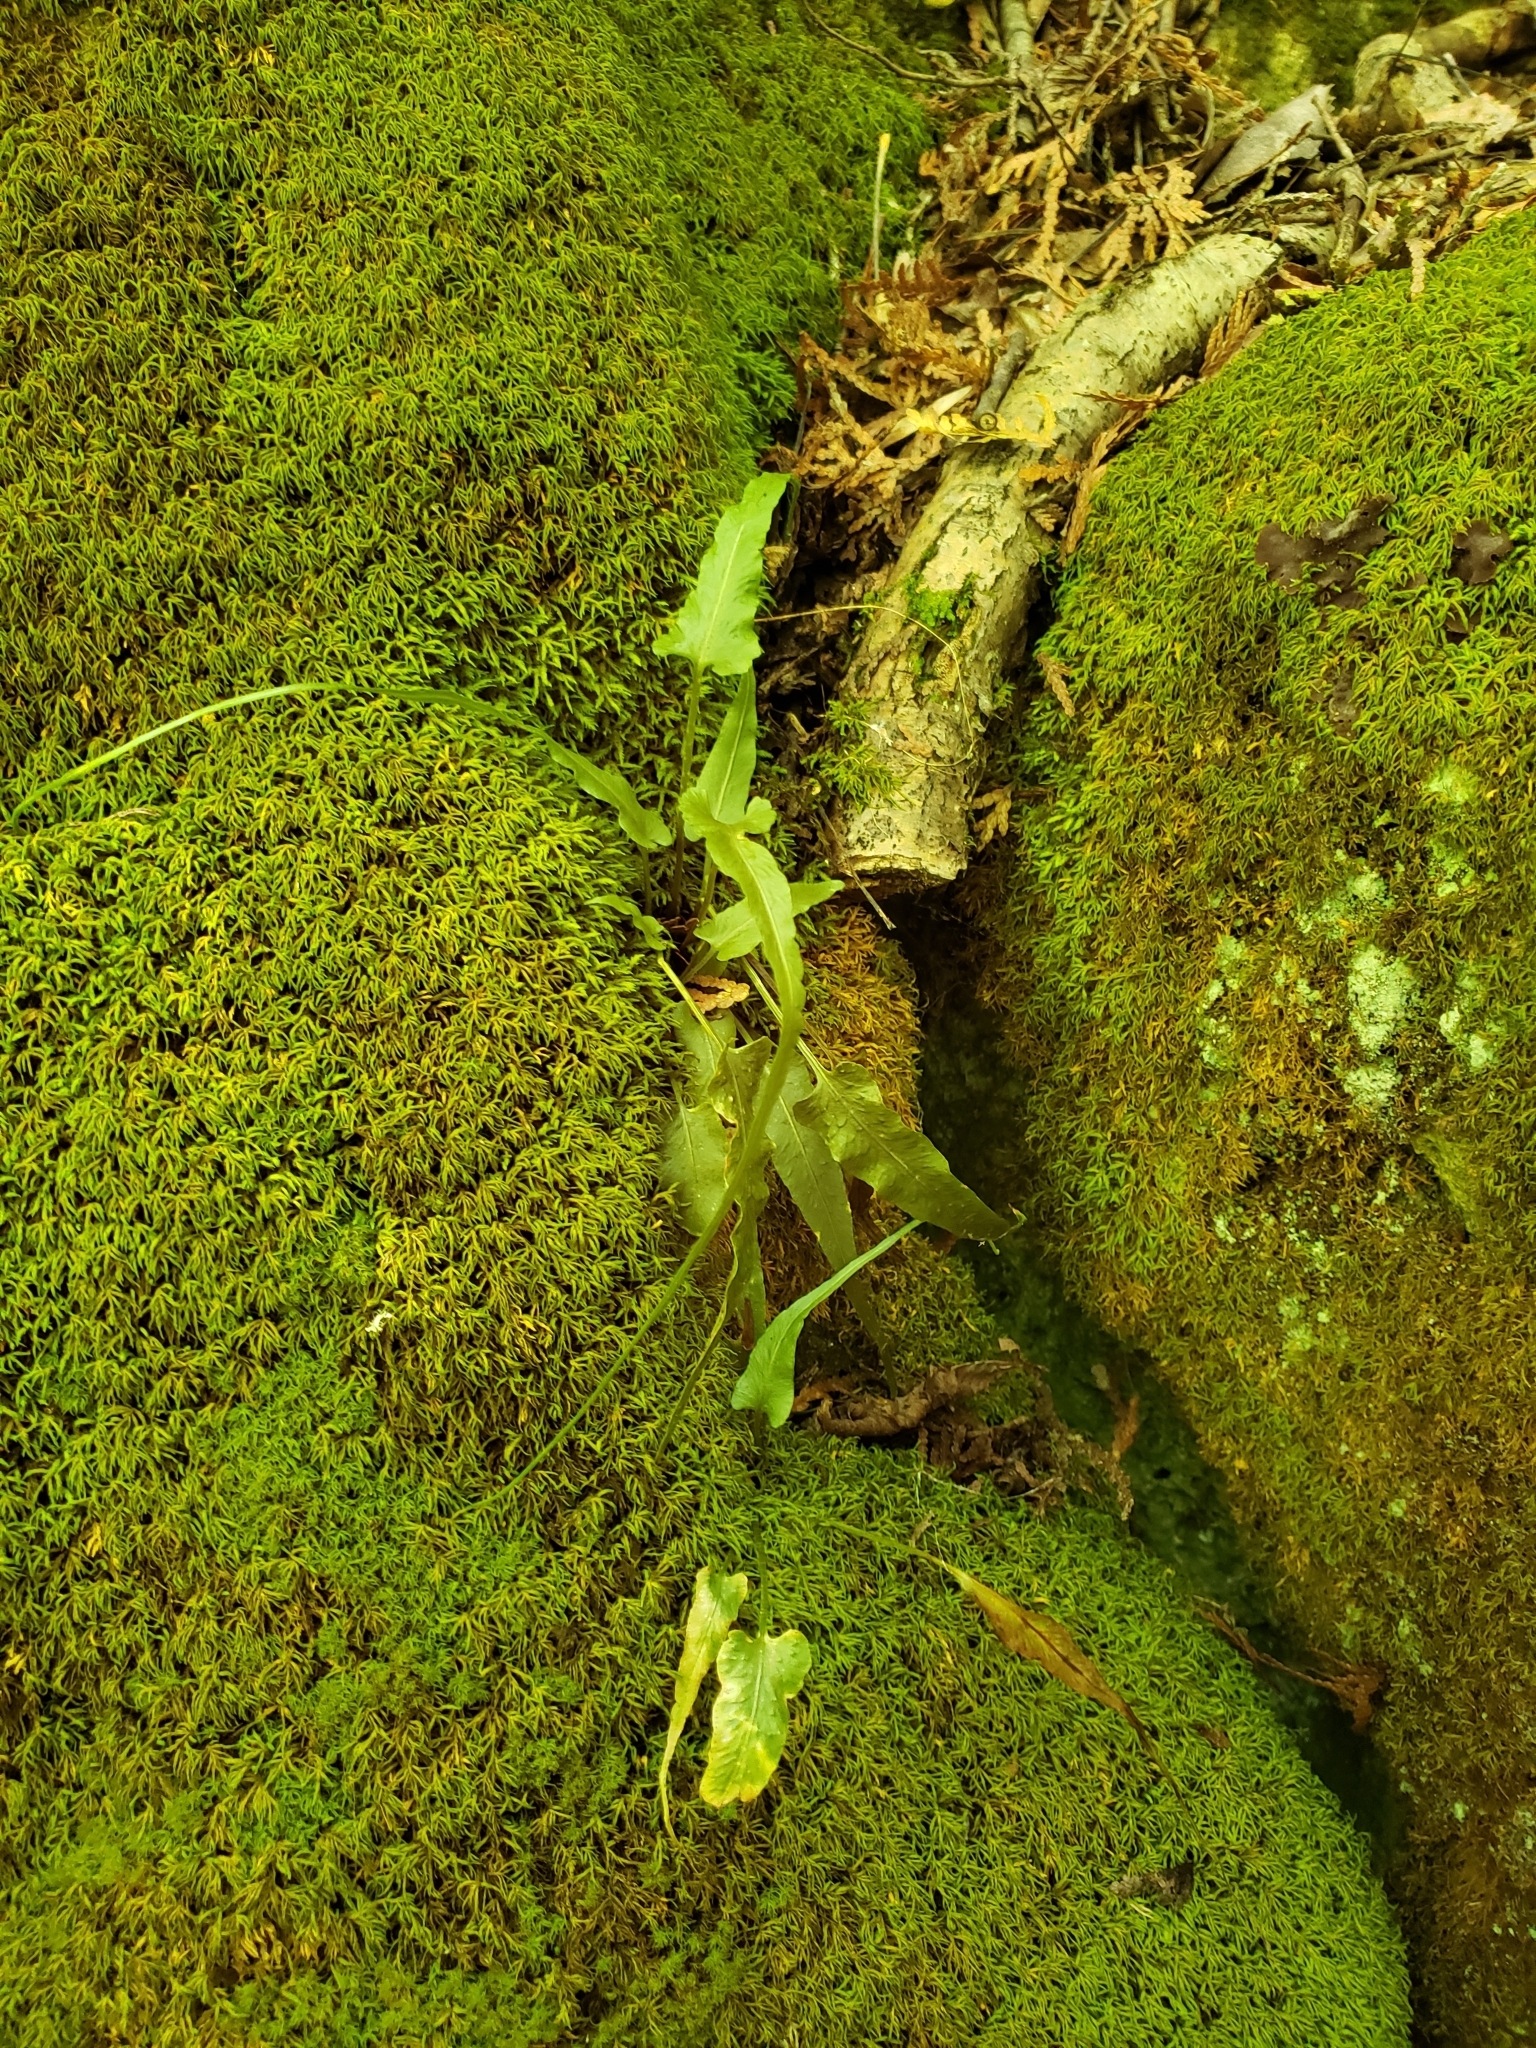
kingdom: Plantae
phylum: Tracheophyta
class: Polypodiopsida
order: Polypodiales
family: Aspleniaceae
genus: Asplenium
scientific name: Asplenium rhizophyllum
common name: Walking fern
